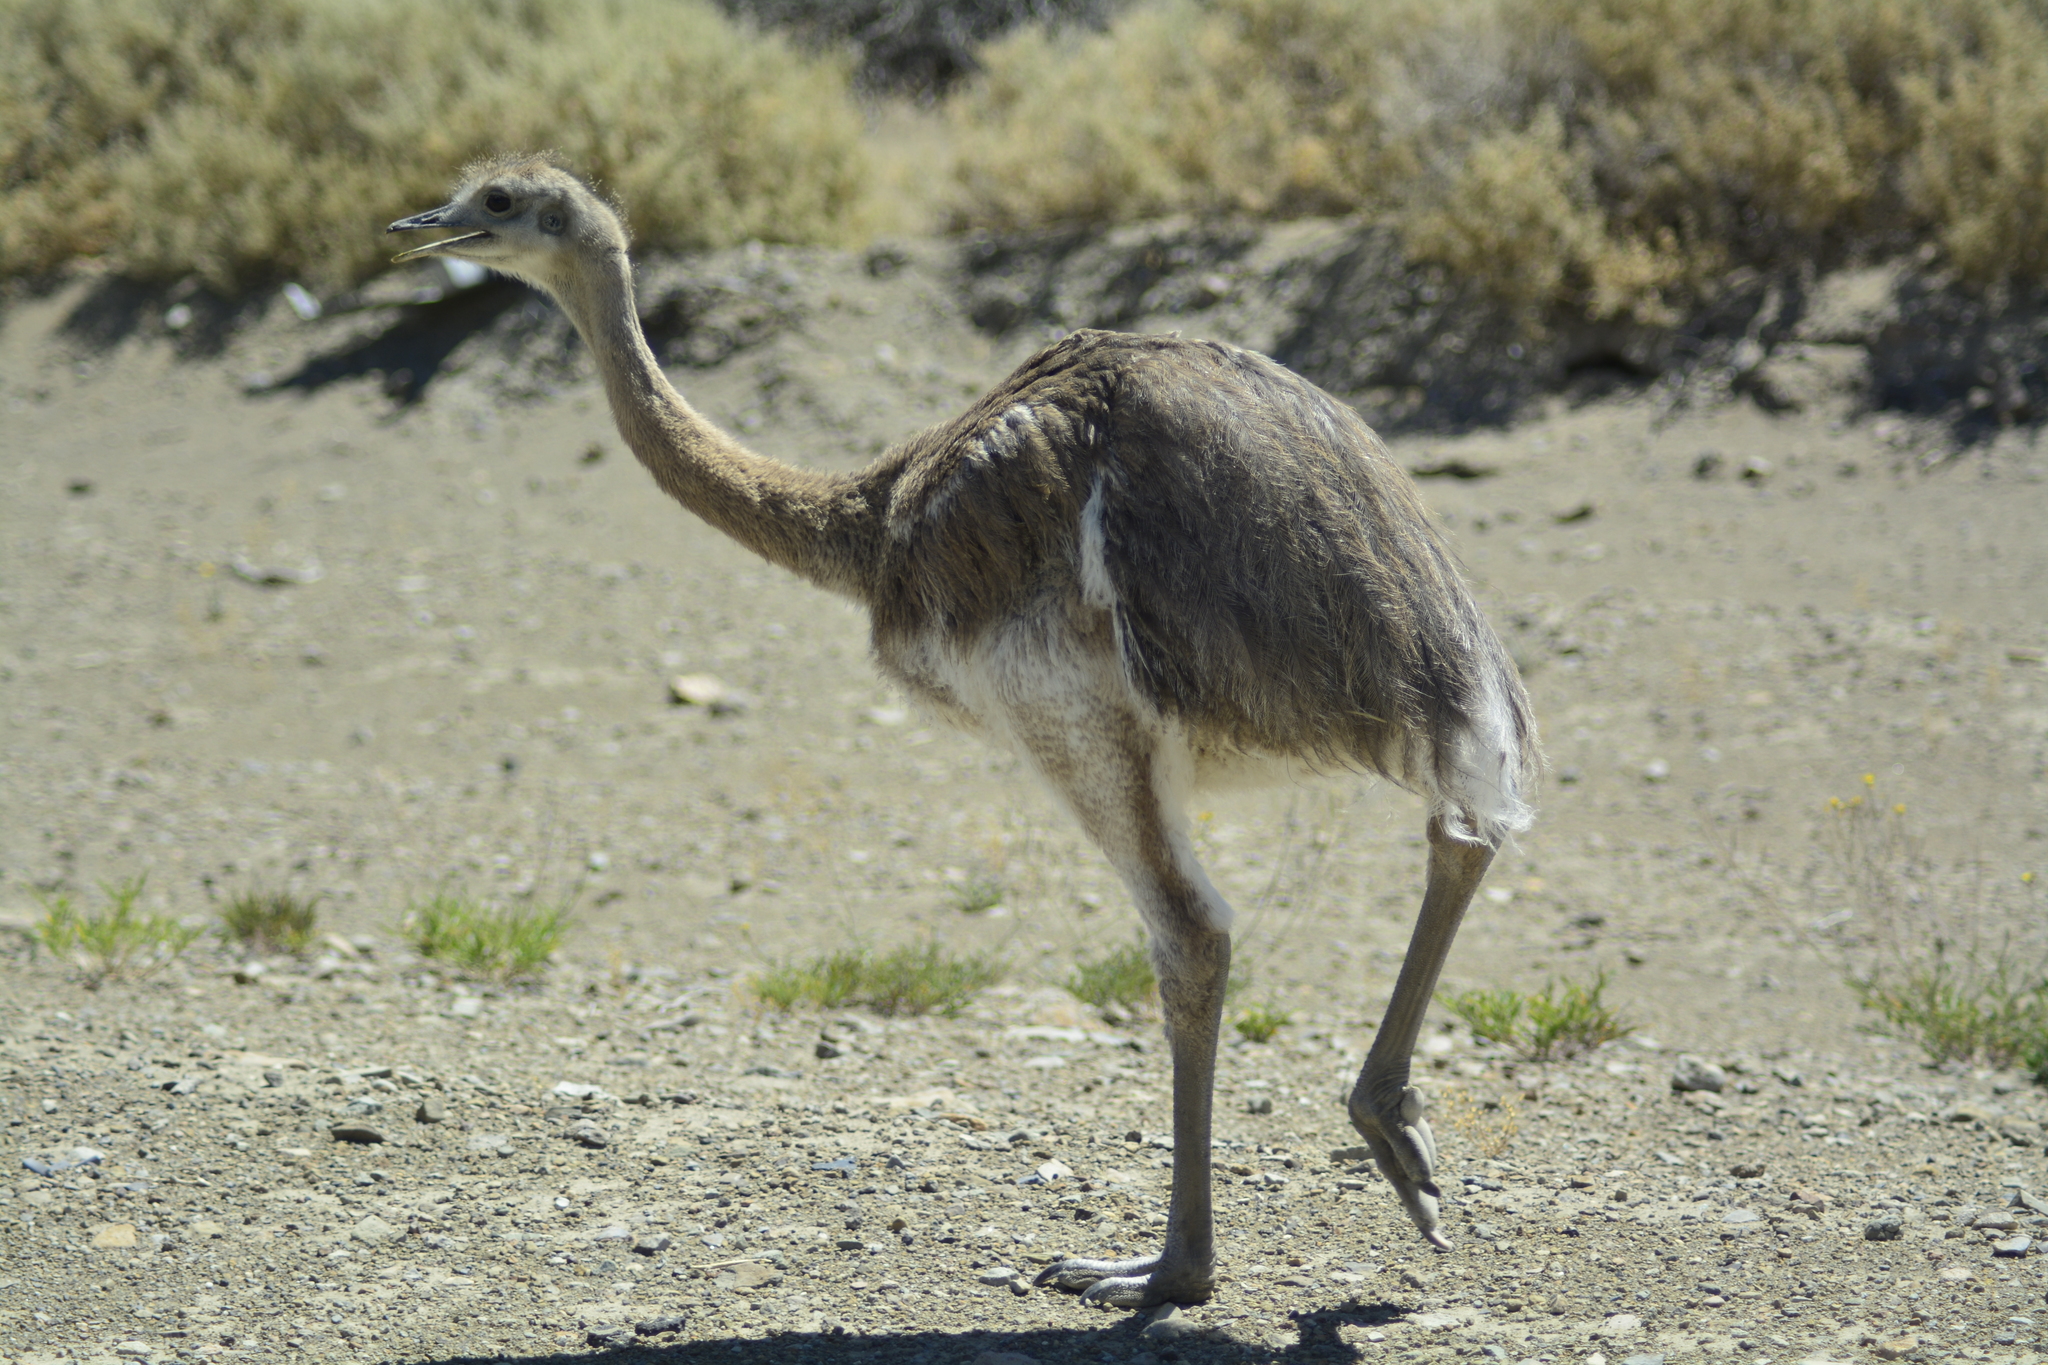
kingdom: Animalia
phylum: Chordata
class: Aves
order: Rheiformes
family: Rheidae
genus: Rhea
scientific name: Rhea pennata
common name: Lesser rhea
